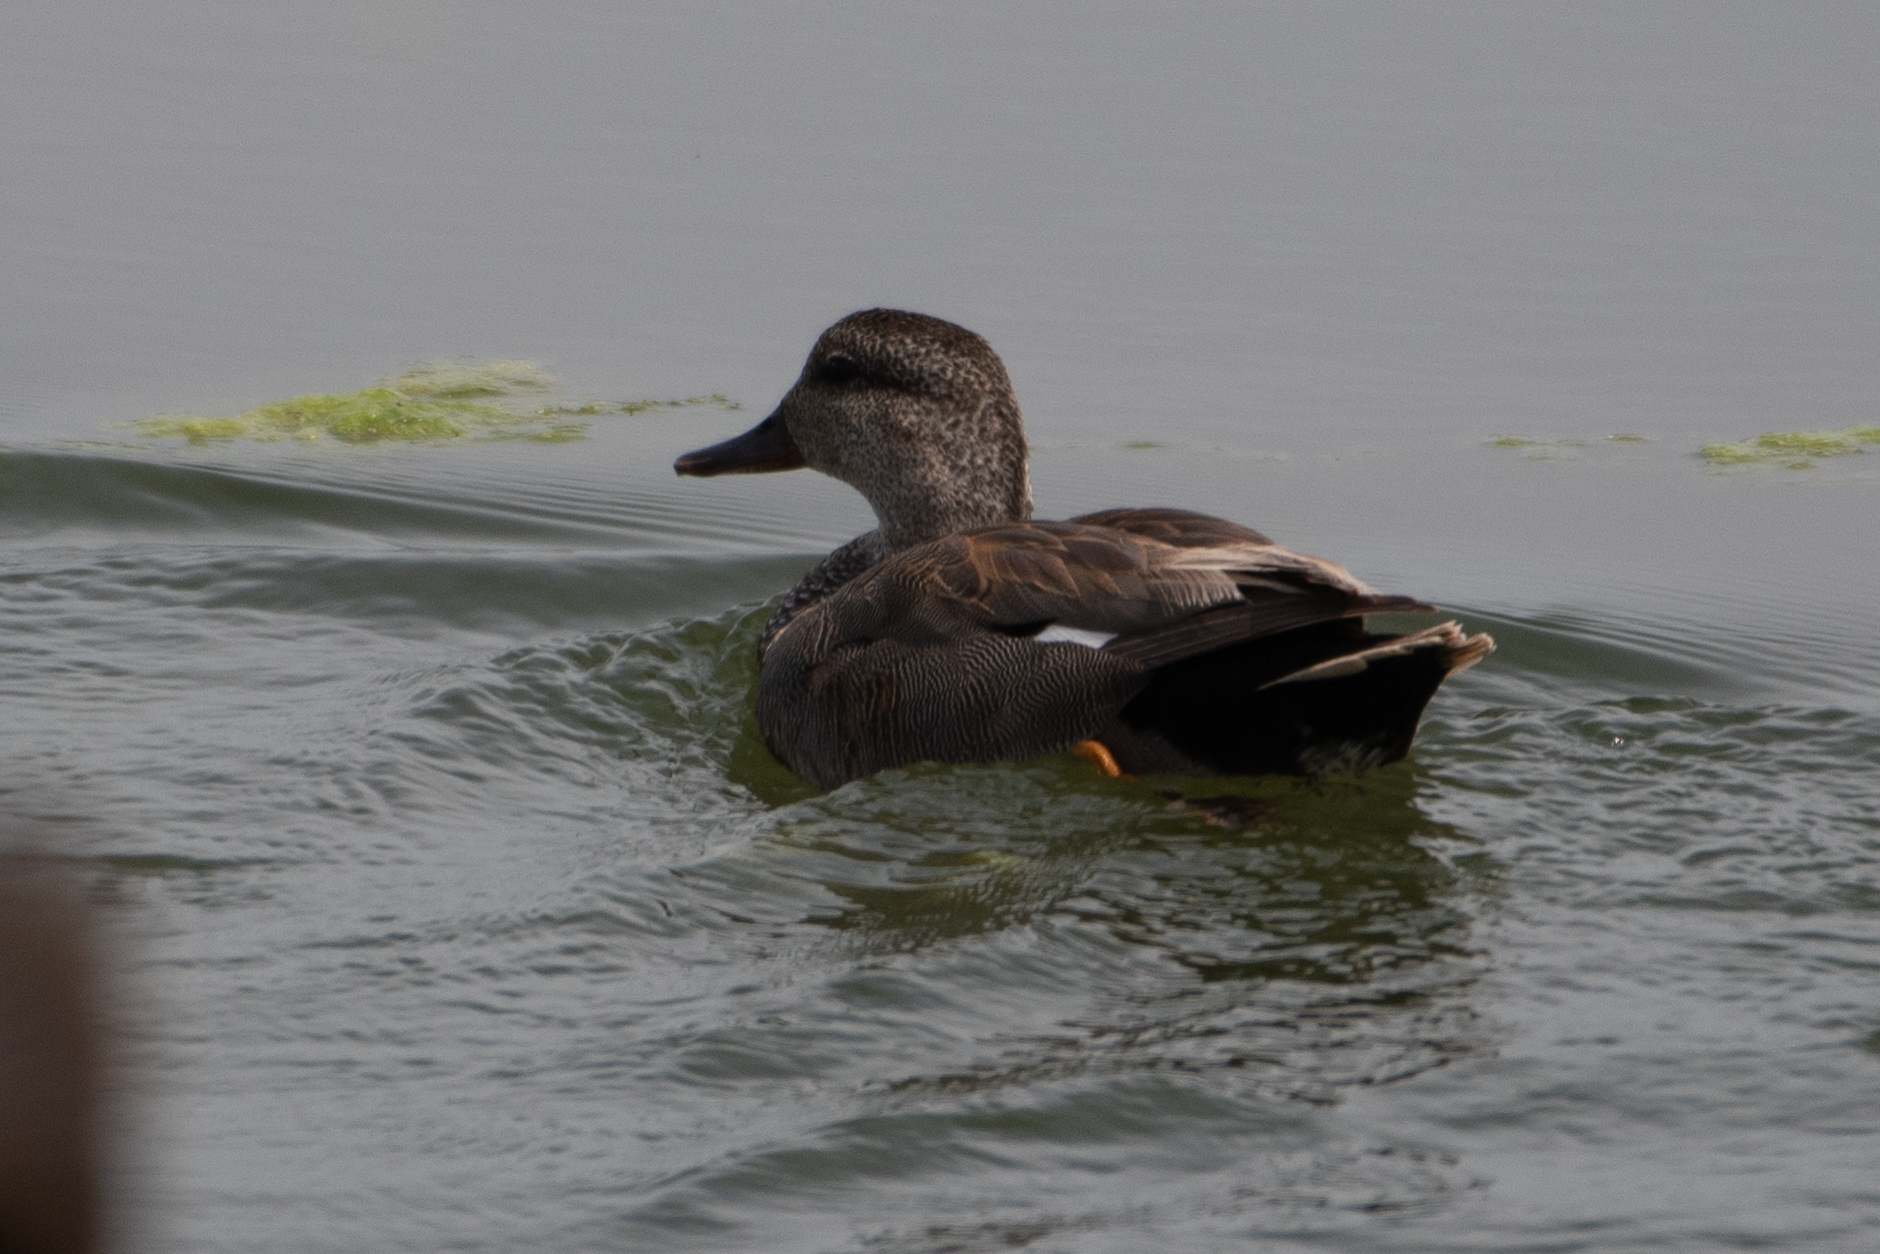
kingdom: Animalia
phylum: Chordata
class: Aves
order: Anseriformes
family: Anatidae
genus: Mareca
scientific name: Mareca strepera
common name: Gadwall
